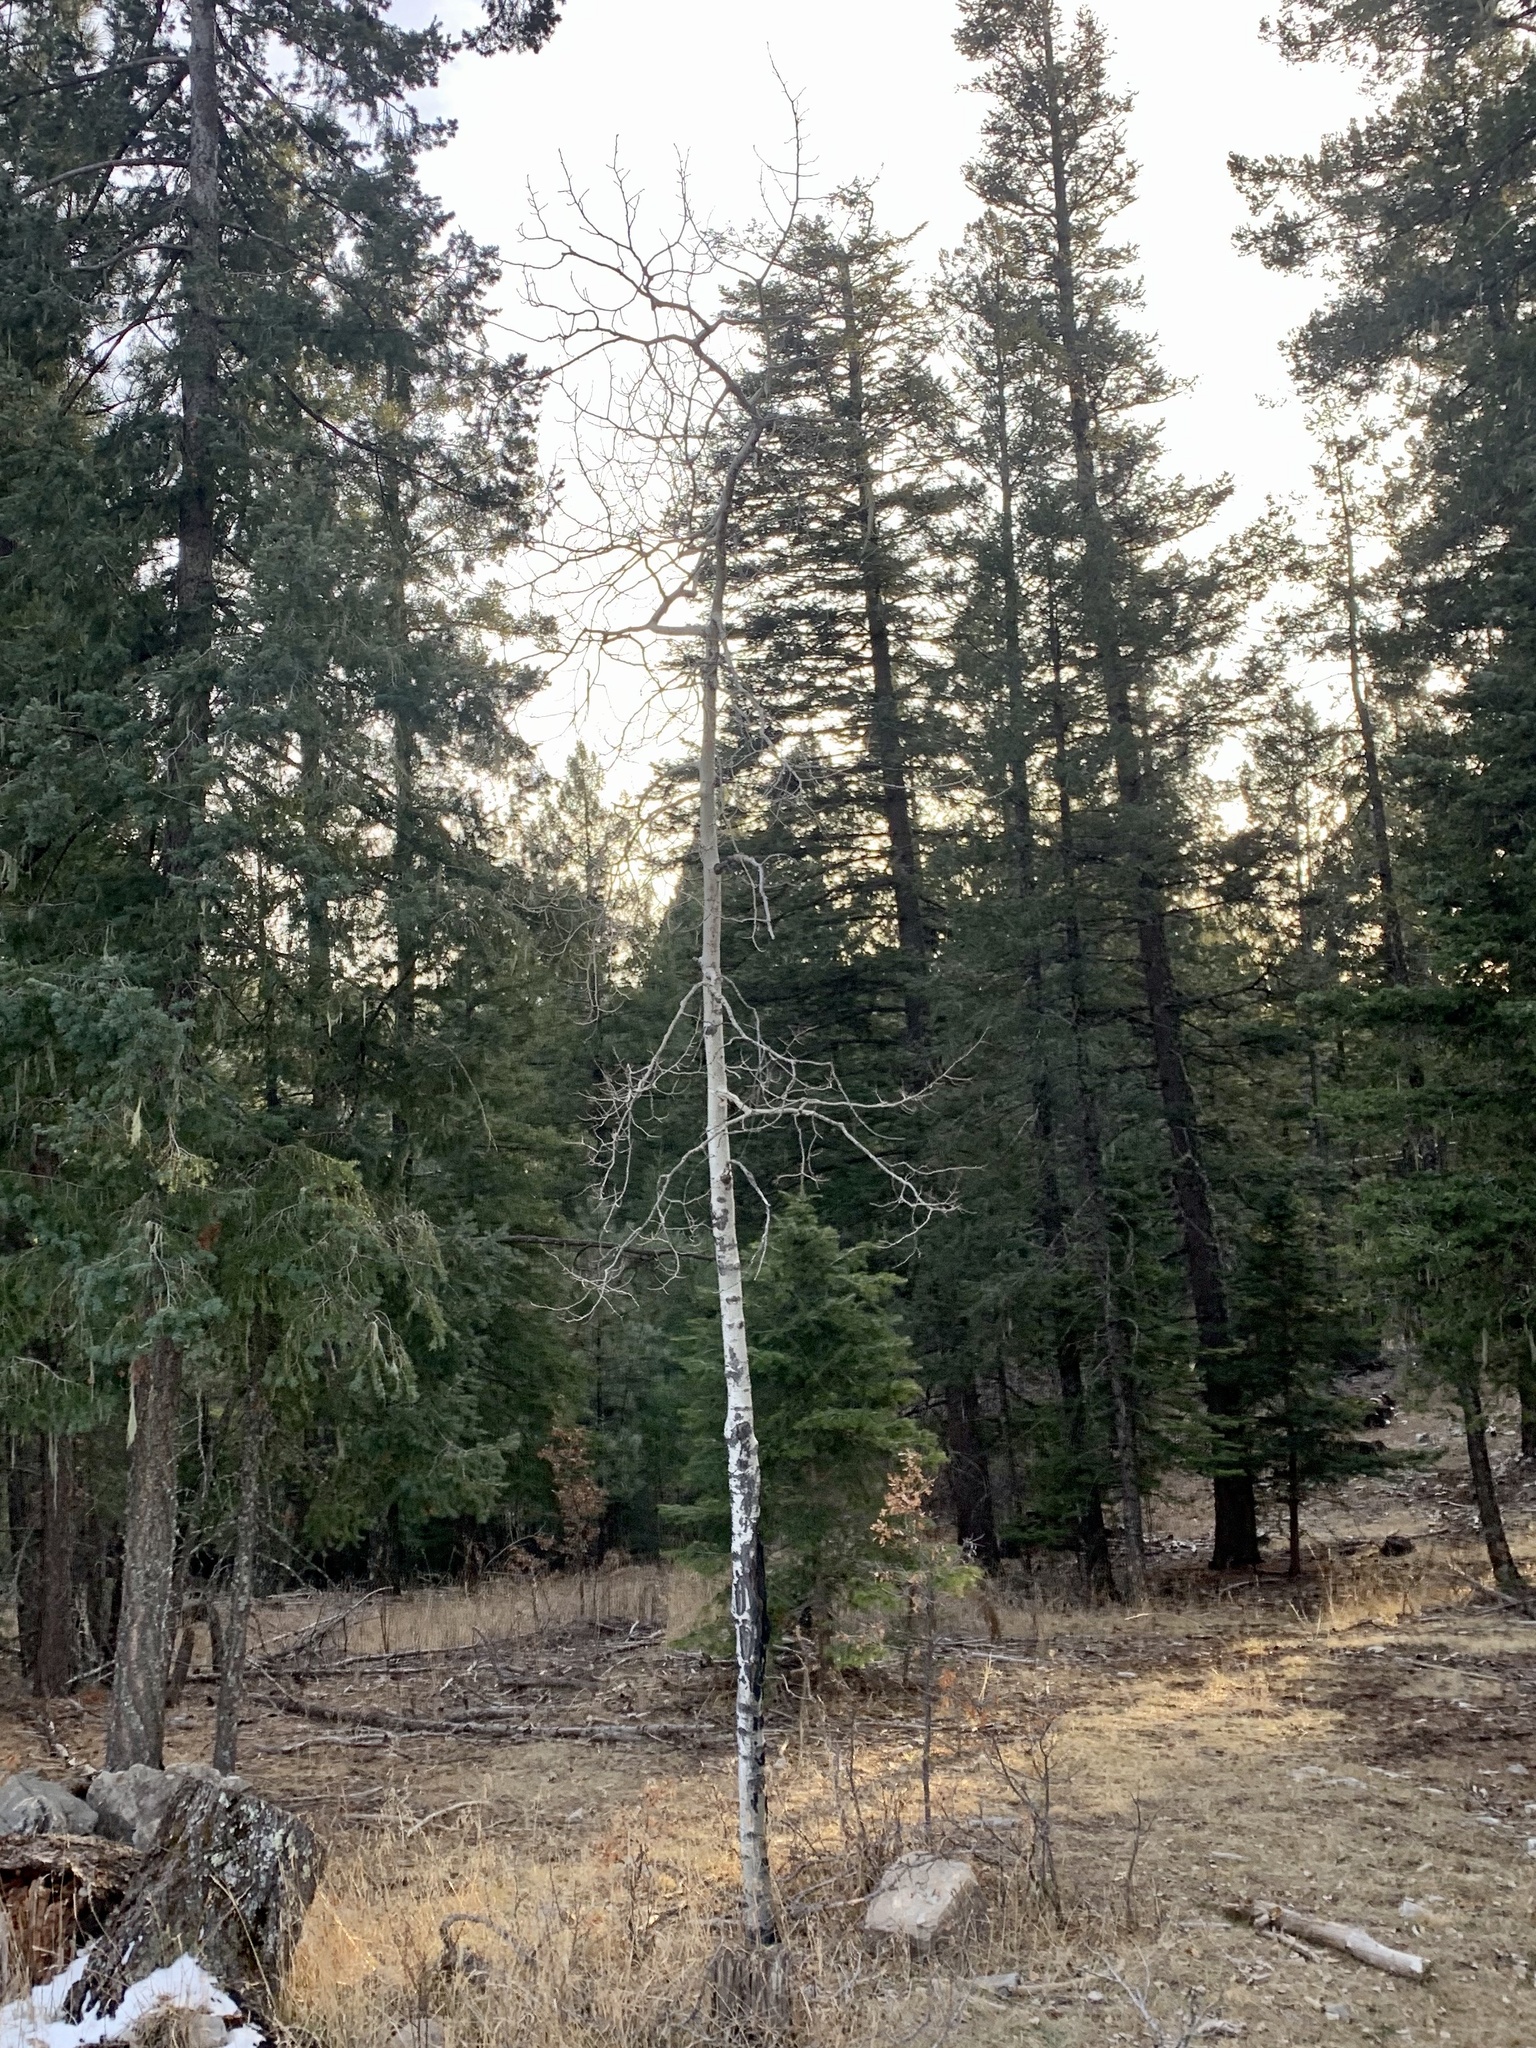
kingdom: Plantae
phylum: Tracheophyta
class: Magnoliopsida
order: Malpighiales
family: Salicaceae
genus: Populus
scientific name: Populus tremuloides
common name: Quaking aspen
